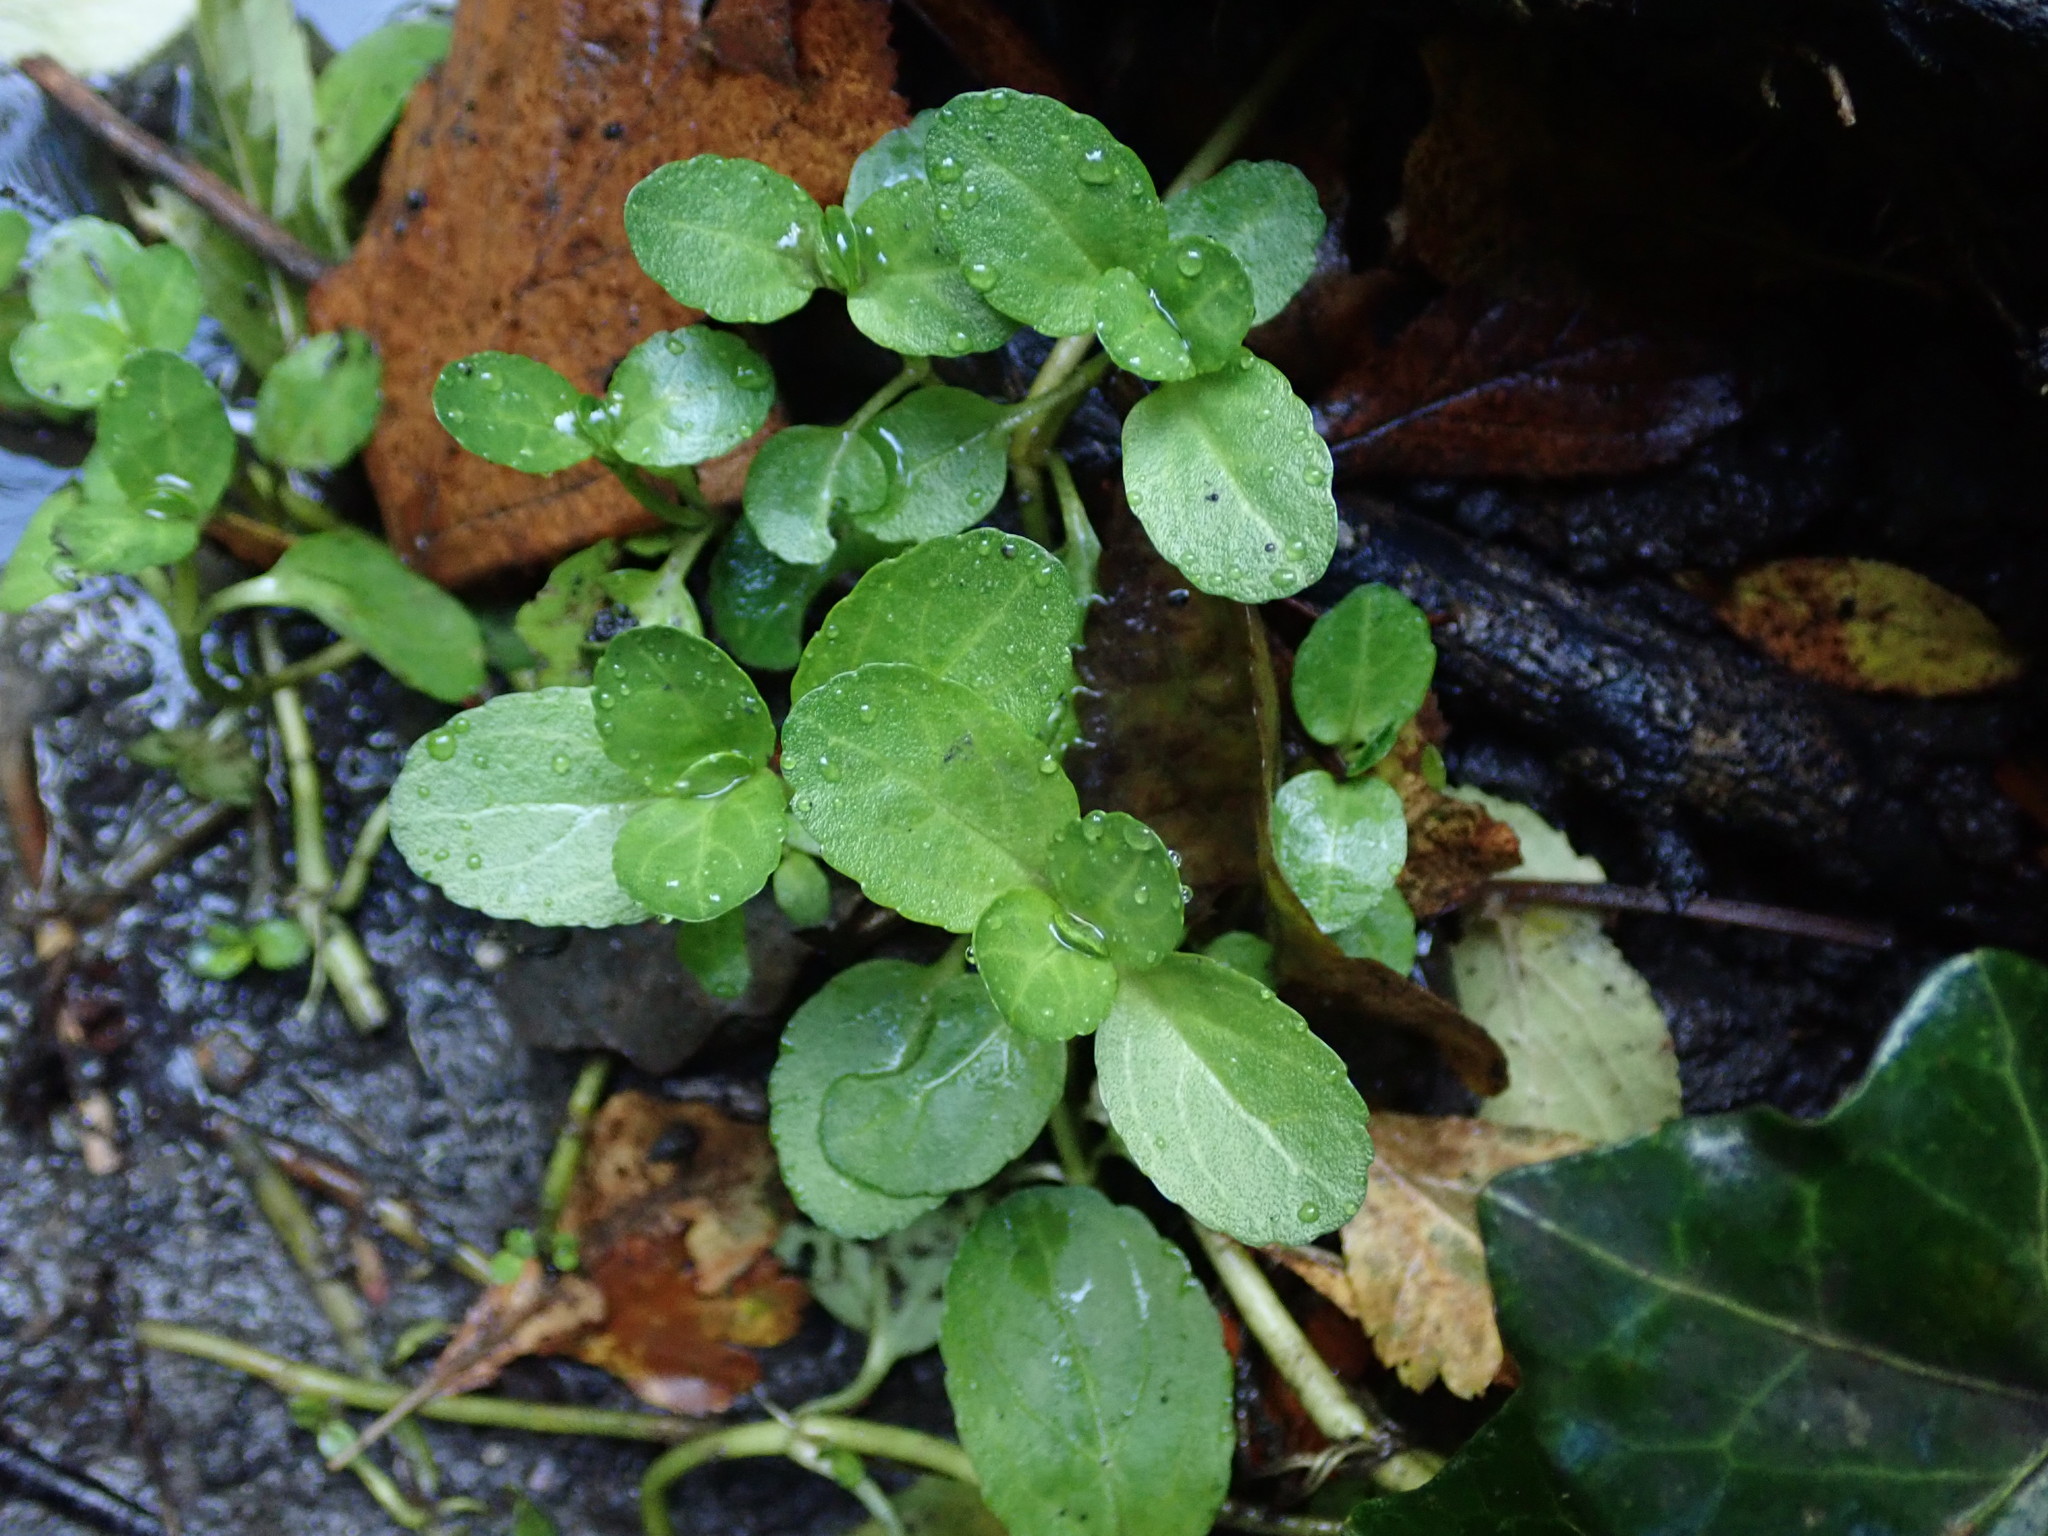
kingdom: Plantae
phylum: Tracheophyta
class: Magnoliopsida
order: Lamiales
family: Plantaginaceae
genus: Veronica
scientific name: Veronica beccabunga
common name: Brooklime
